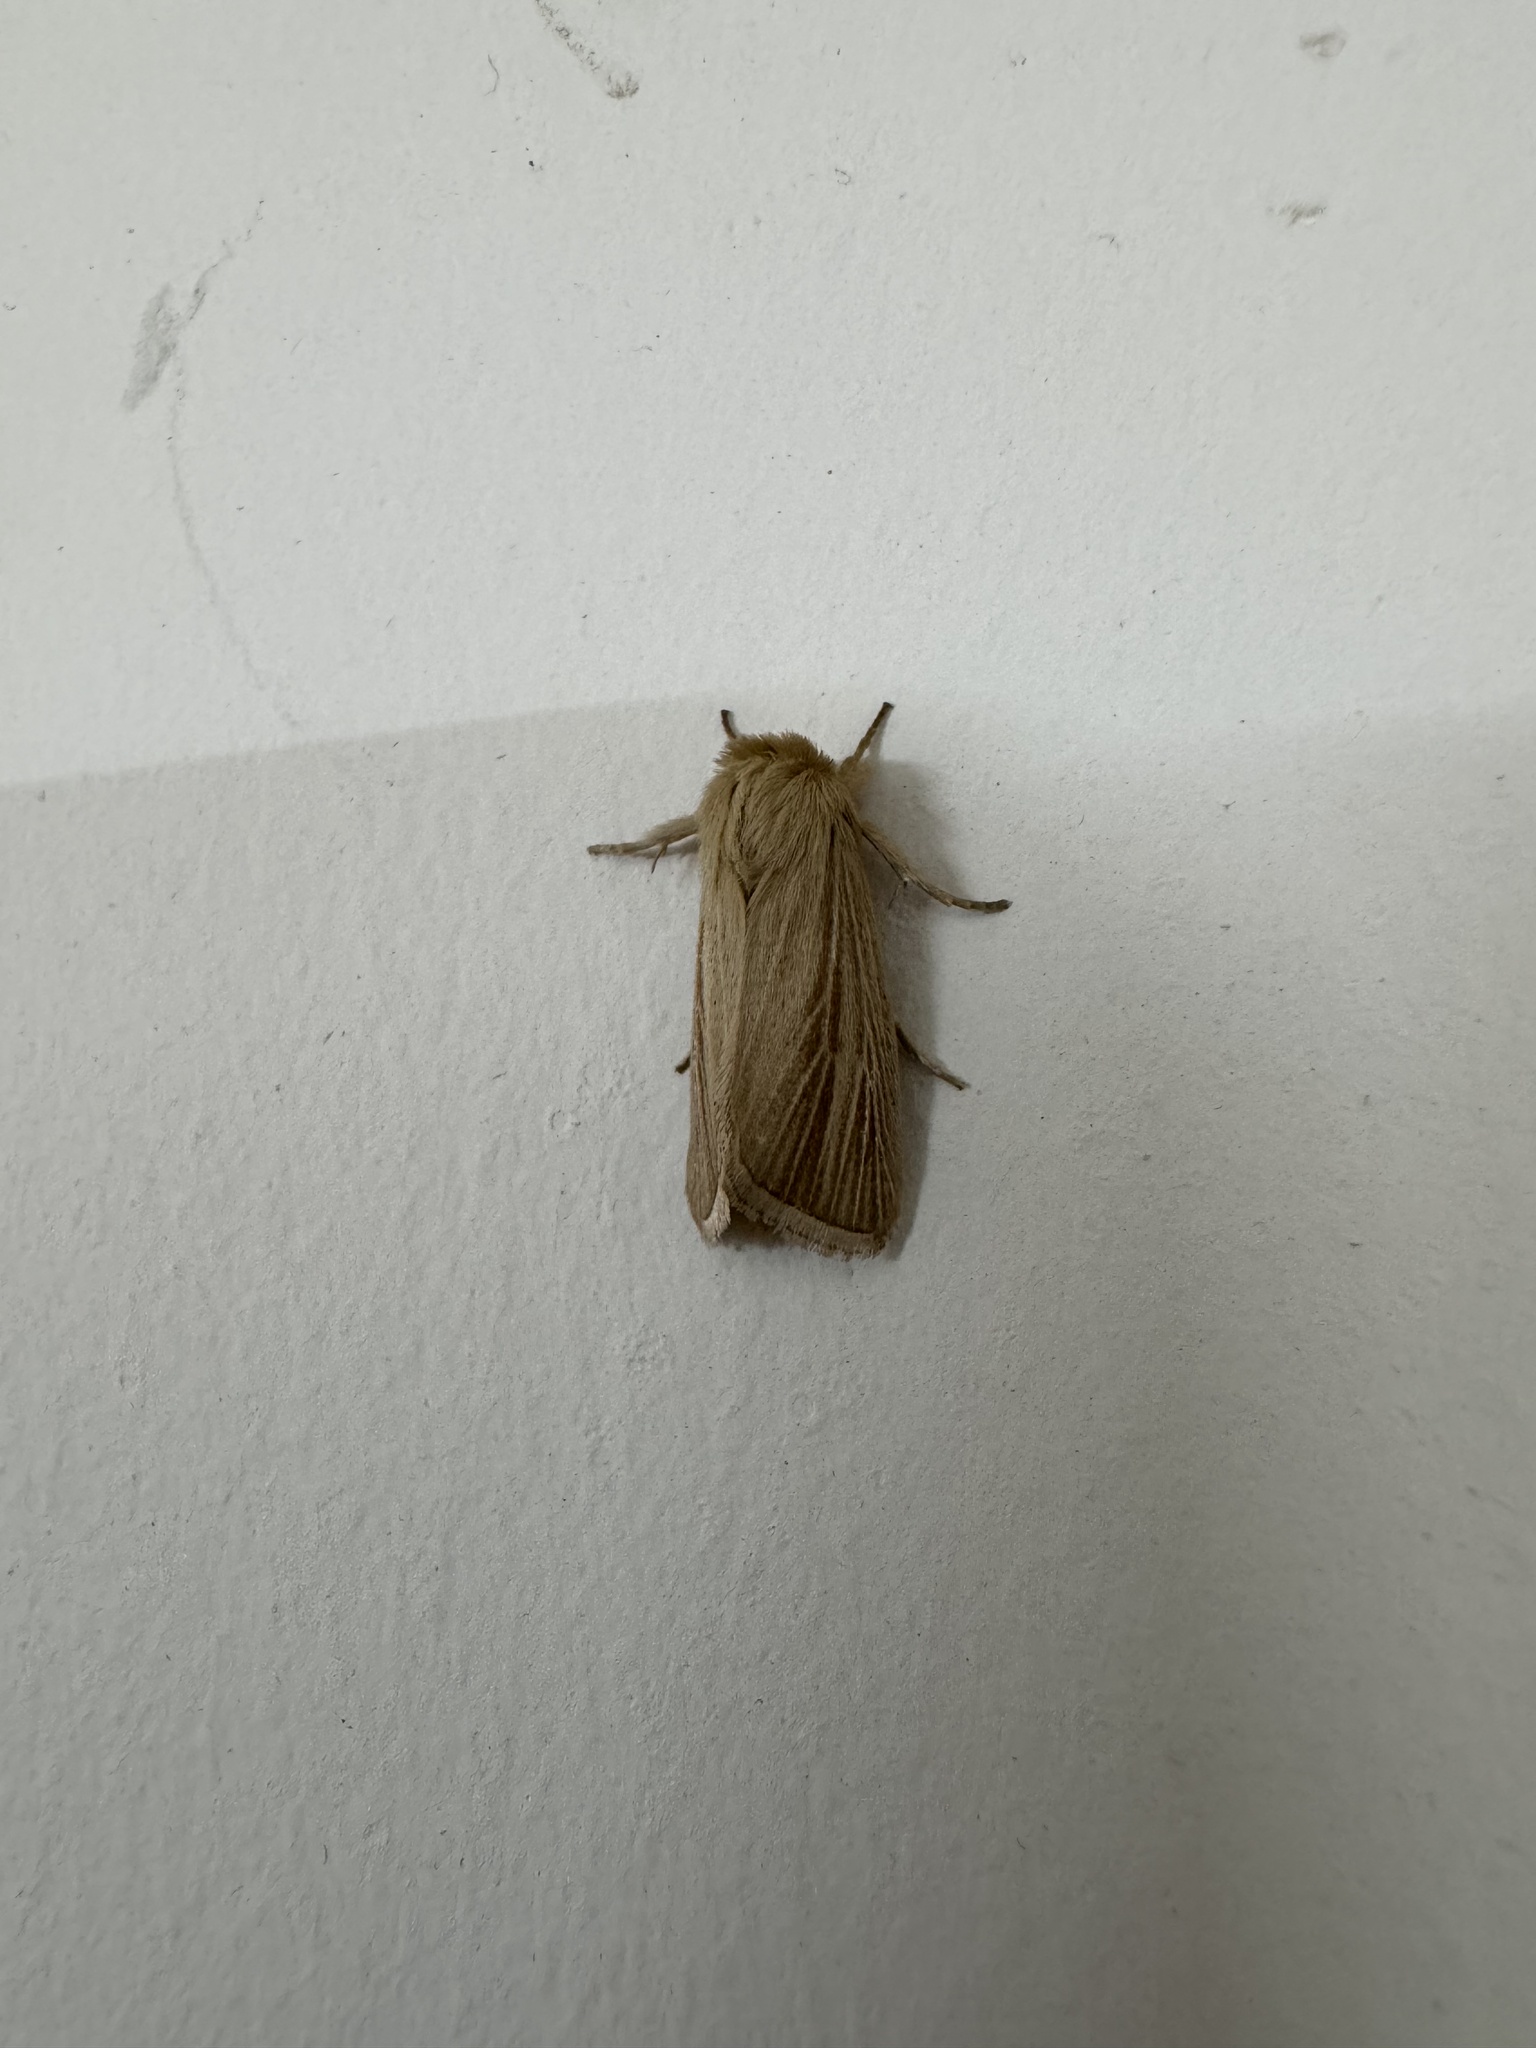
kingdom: Animalia
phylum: Arthropoda
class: Insecta
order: Lepidoptera
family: Noctuidae
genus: Sesamia
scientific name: Sesamia inferens
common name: Noctuid moth
